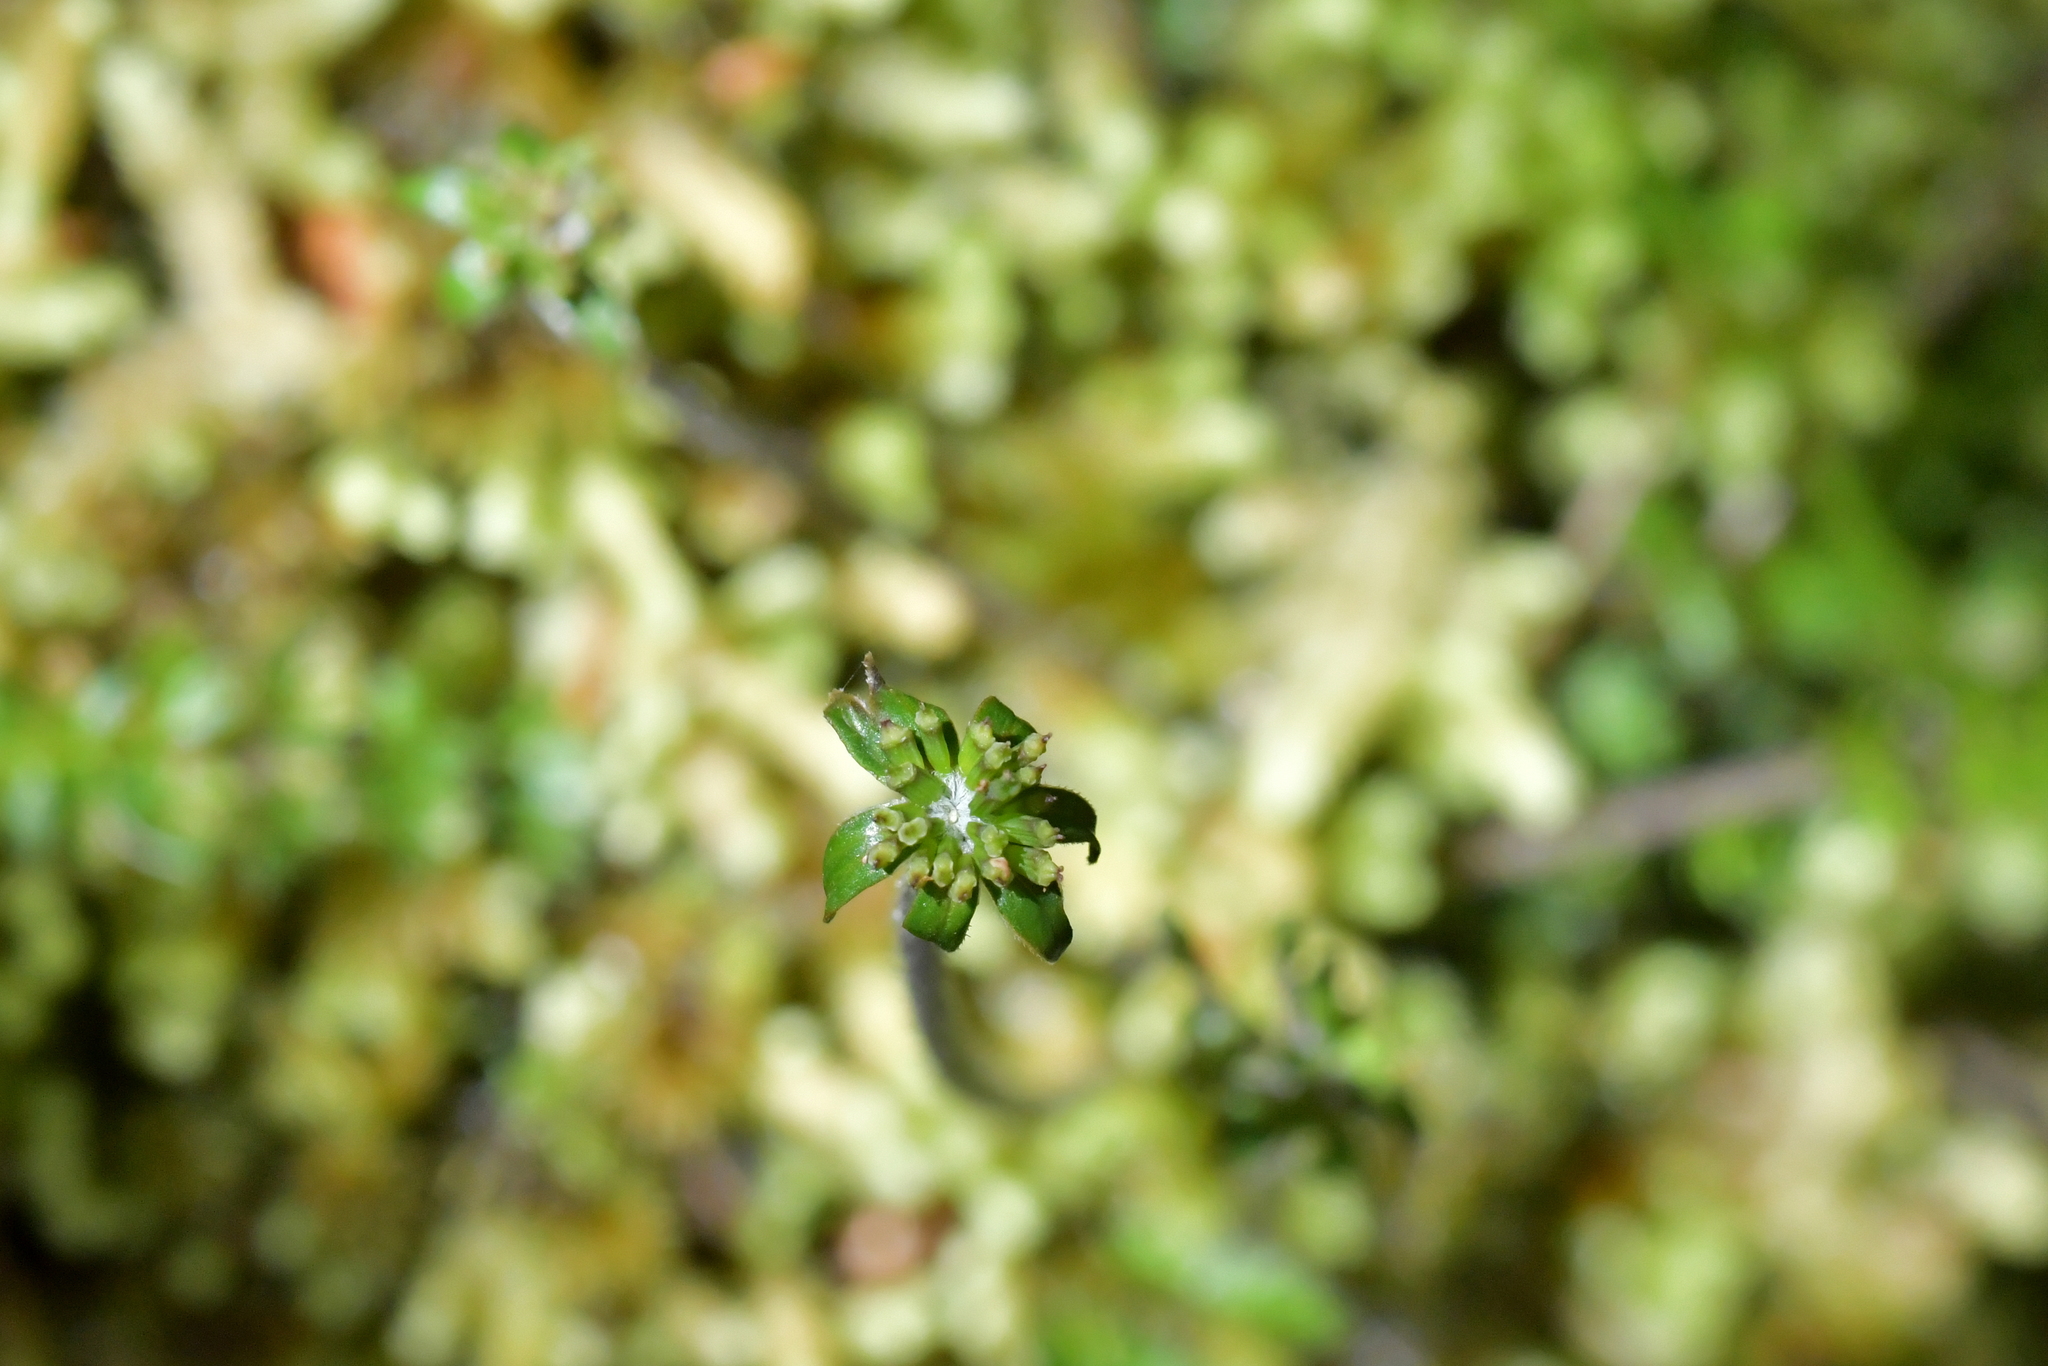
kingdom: Plantae
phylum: Tracheophyta
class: Magnoliopsida
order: Apiales
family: Apiaceae
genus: Chaerophyllum
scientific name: Chaerophyllum colensoi
